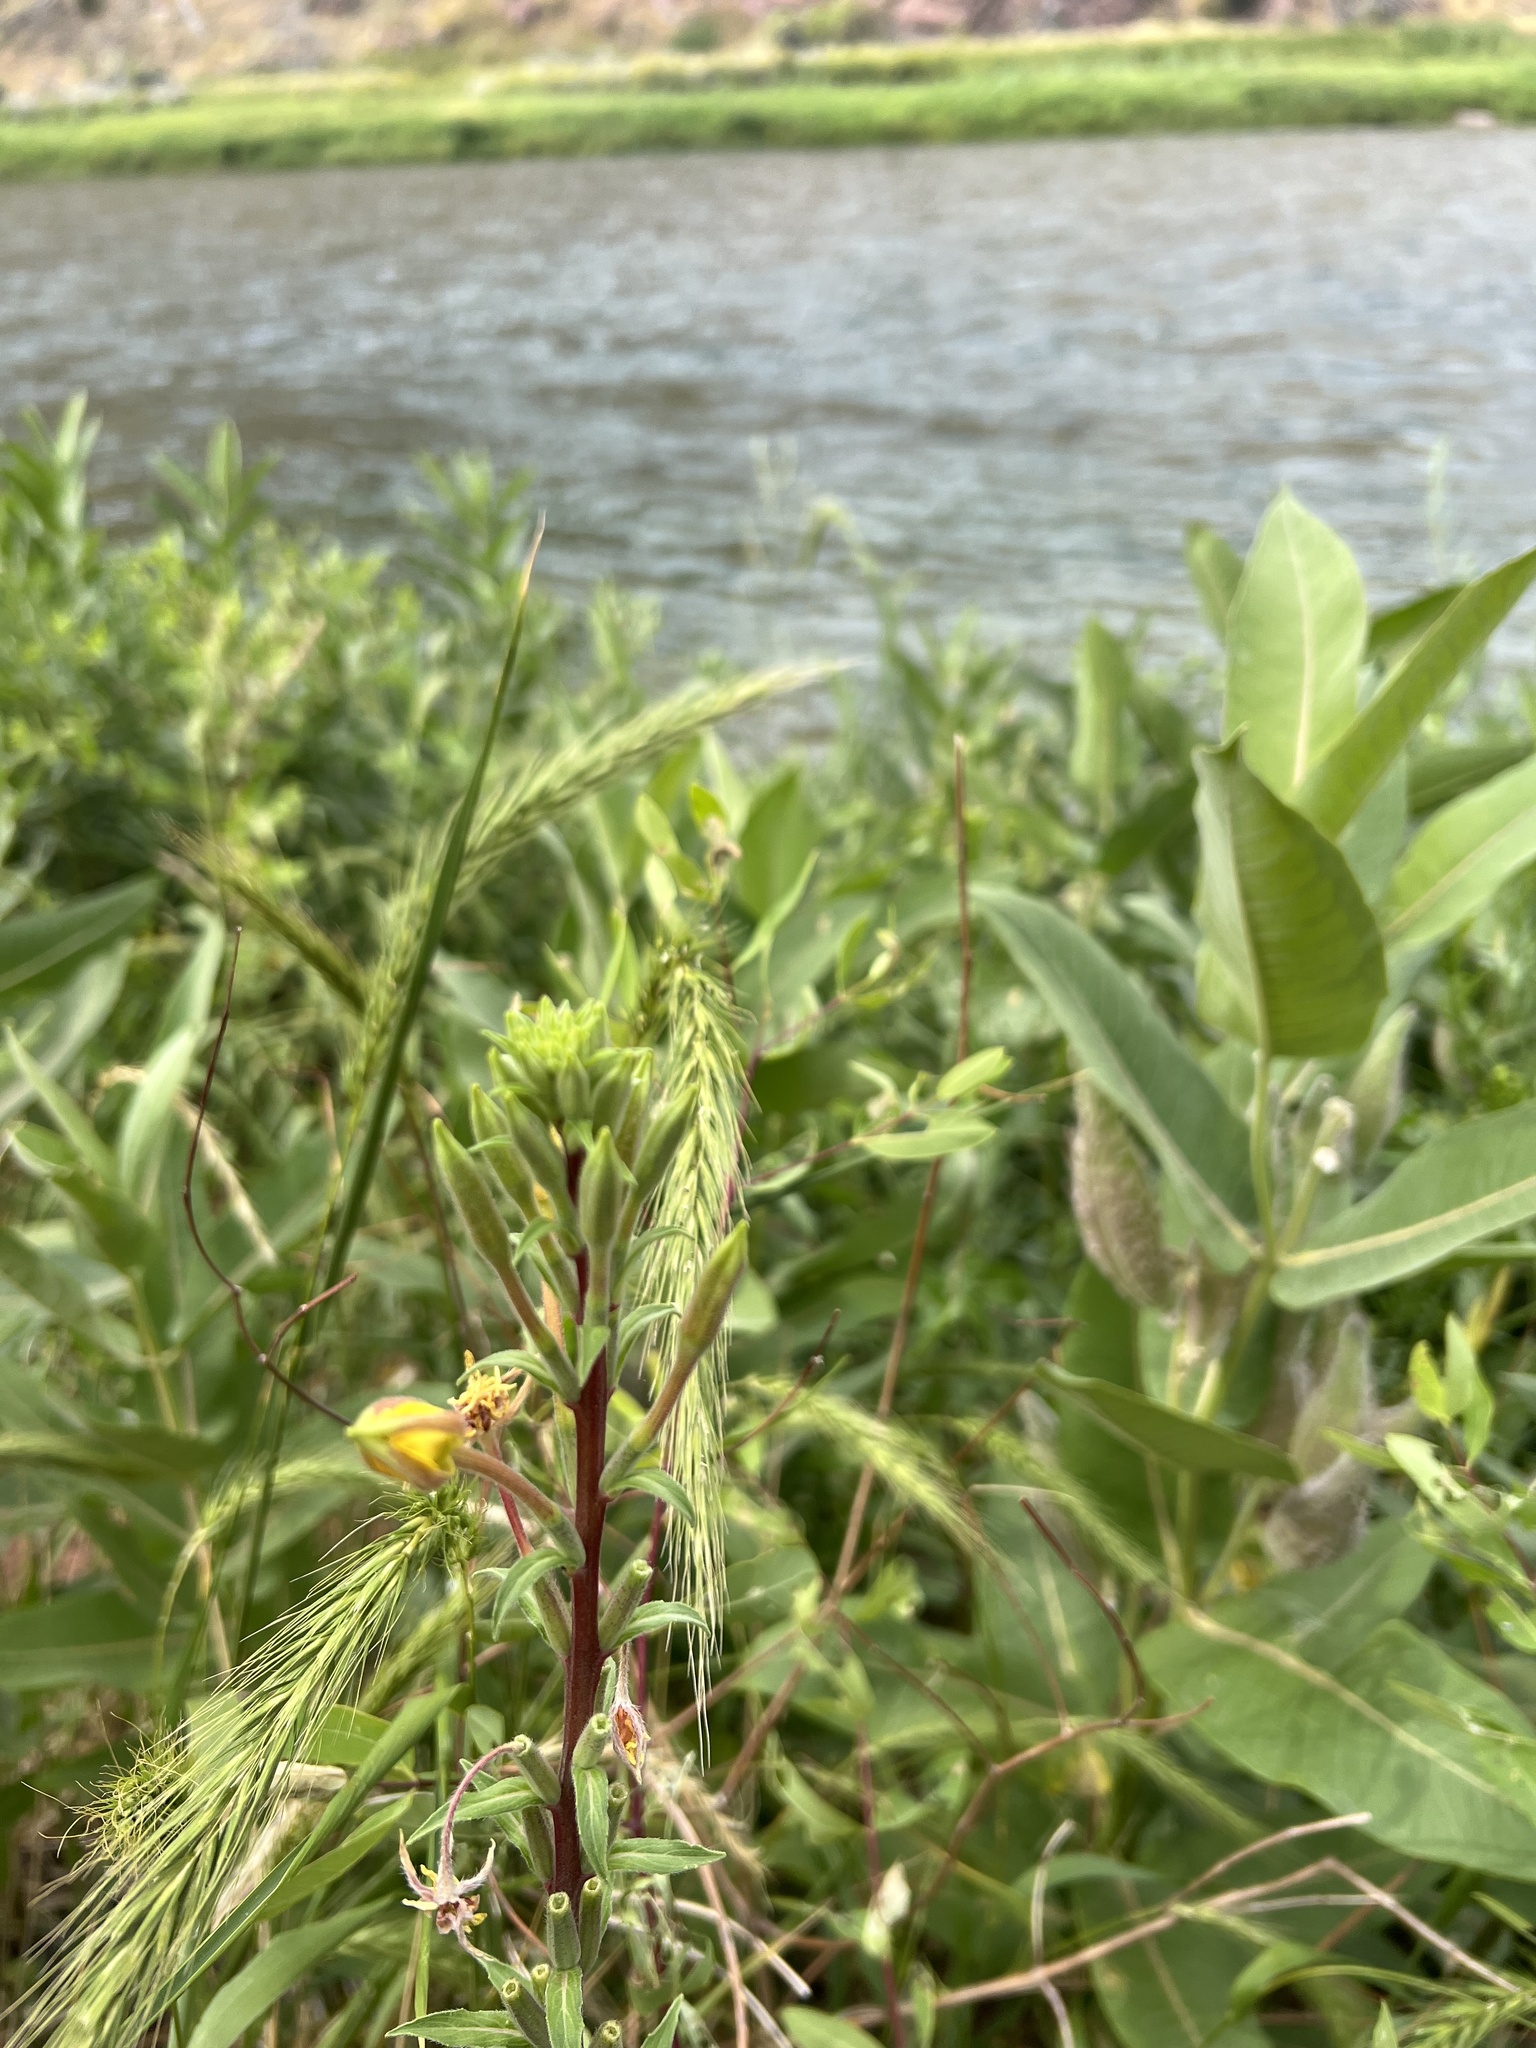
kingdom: Plantae
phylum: Tracheophyta
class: Magnoliopsida
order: Myrtales
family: Onagraceae
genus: Oenothera
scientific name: Oenothera elata
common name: Hooker's evening-primrose
